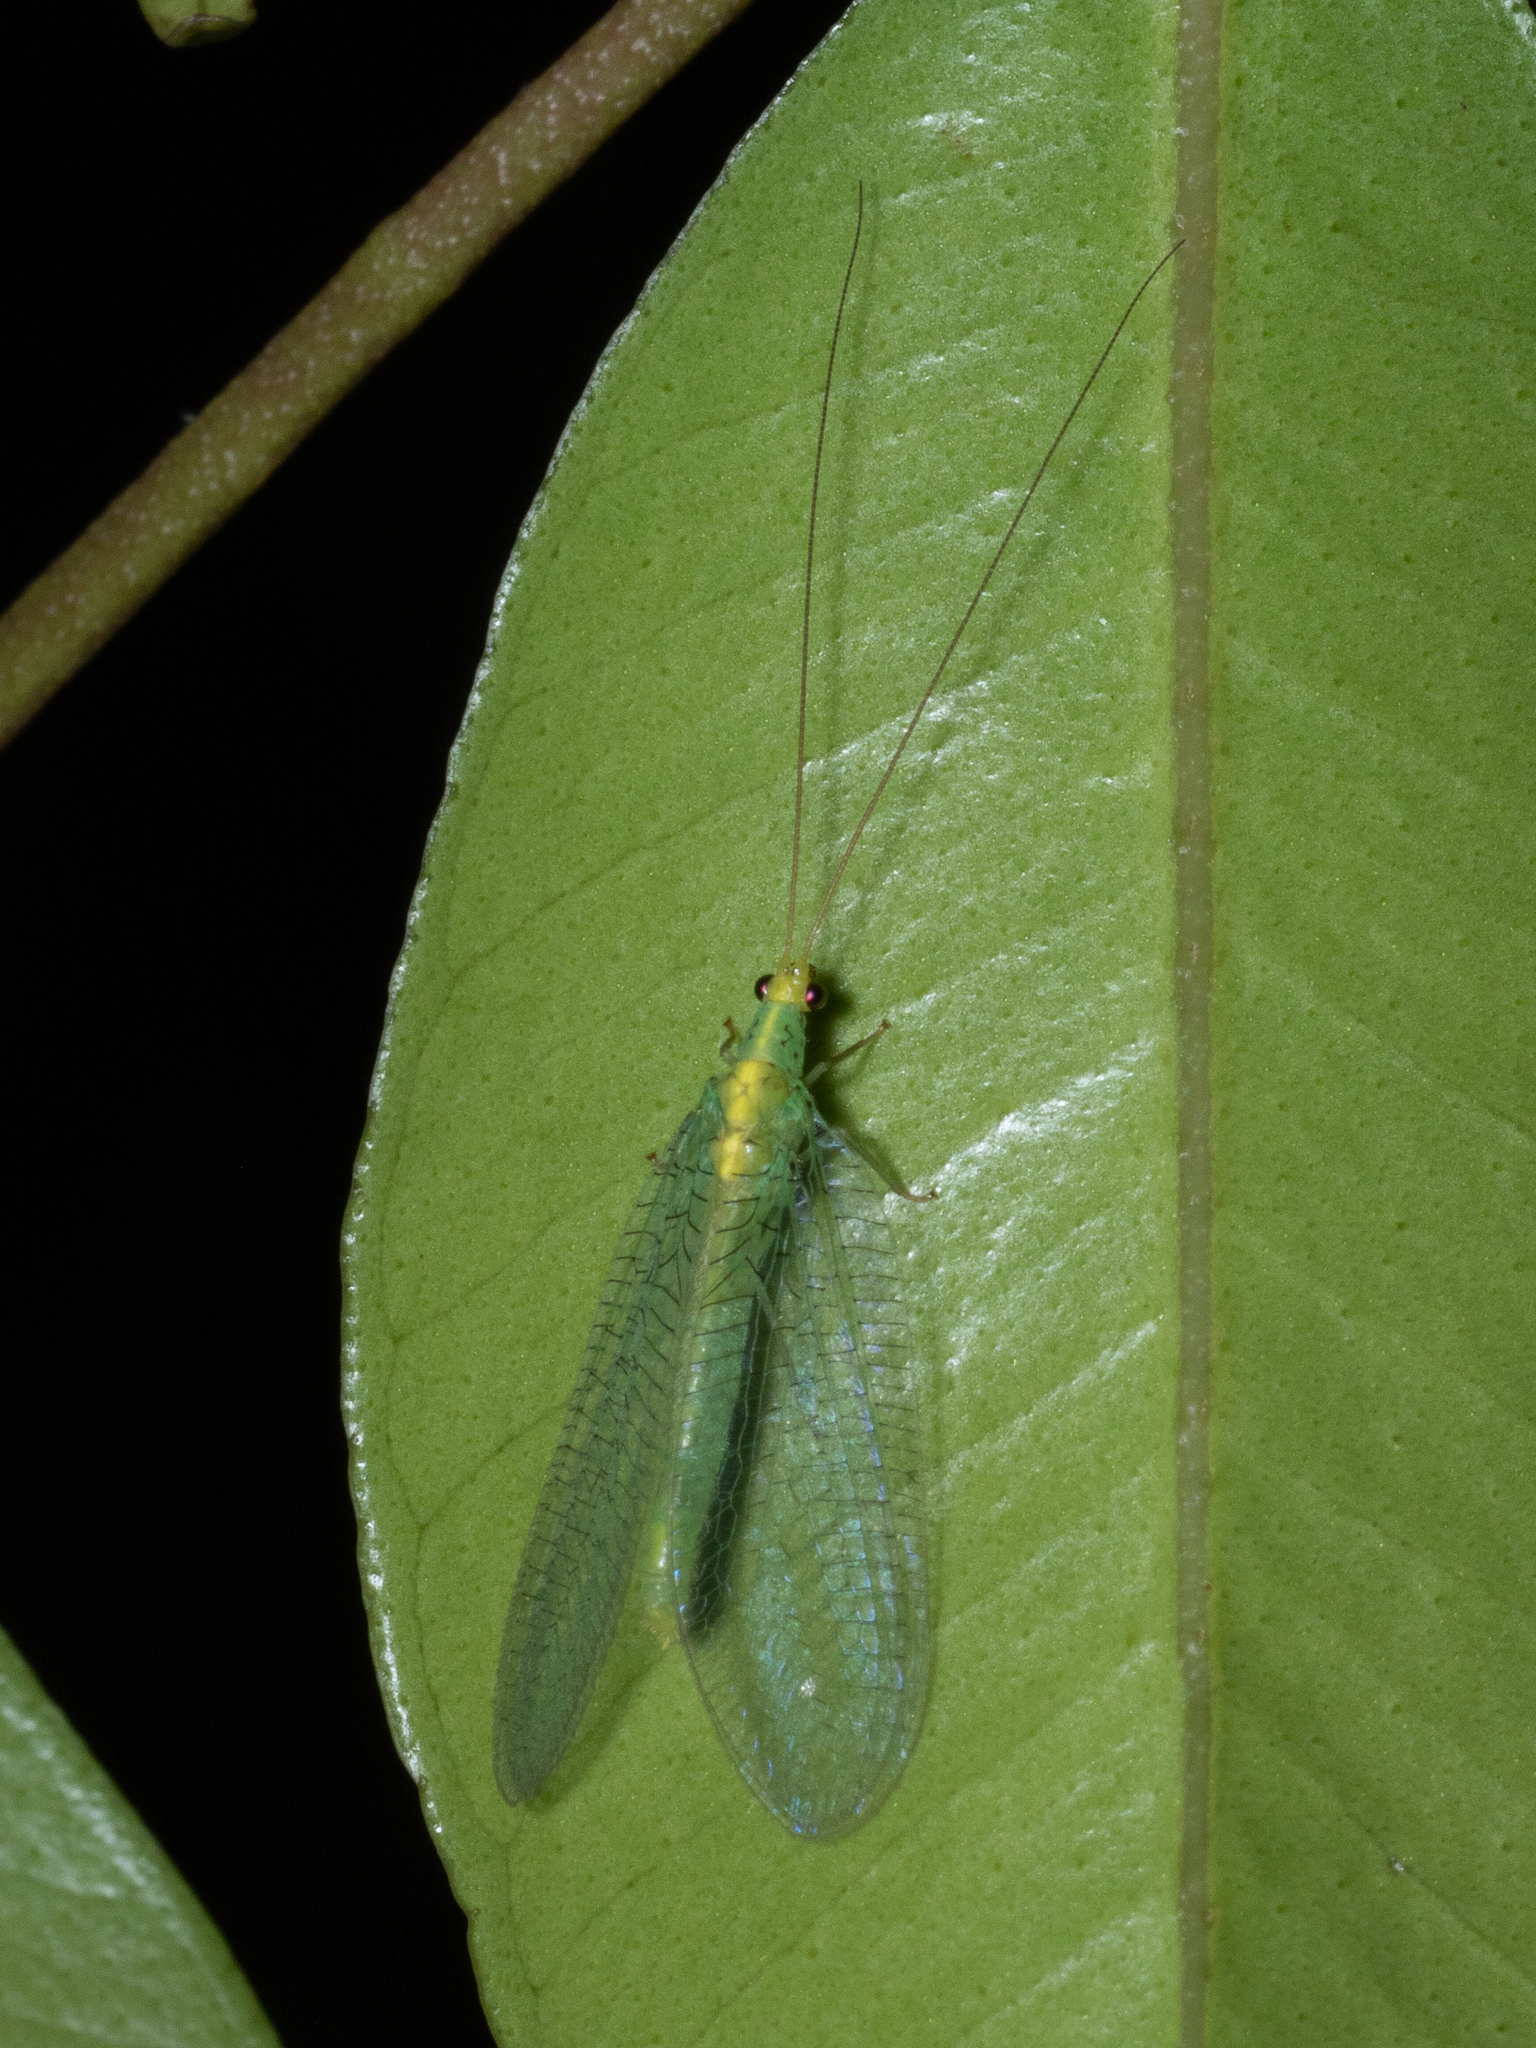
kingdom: Animalia
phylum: Arthropoda
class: Insecta
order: Neuroptera
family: Chrysopidae
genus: Pseudomallada
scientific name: Pseudomallada edwardsi
